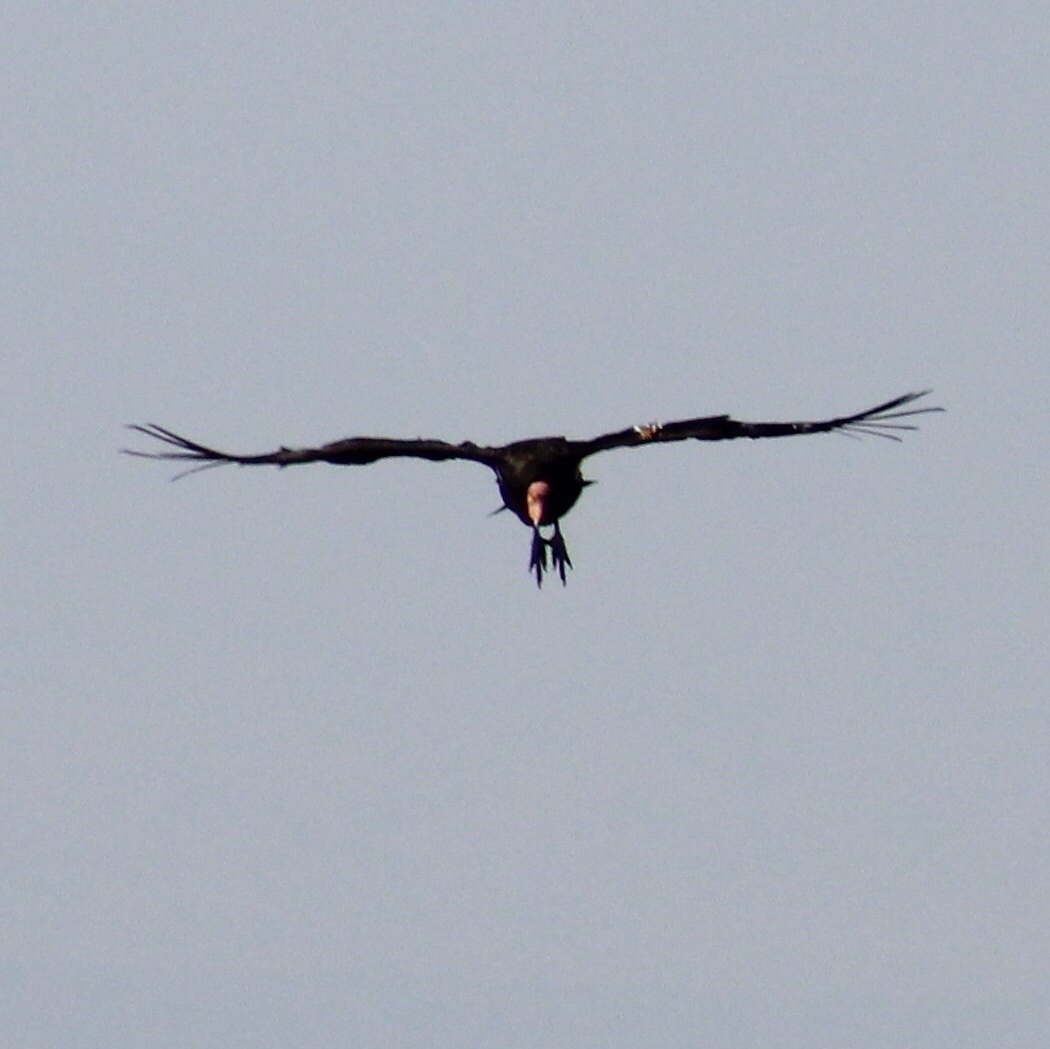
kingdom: Animalia
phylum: Chordata
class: Aves
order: Accipitriformes
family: Cathartidae
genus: Gymnogyps
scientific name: Gymnogyps californianus
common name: California condor
